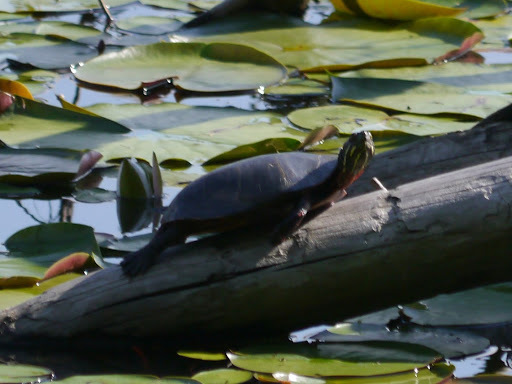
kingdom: Animalia
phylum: Chordata
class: Testudines
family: Emydidae
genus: Chrysemys
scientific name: Chrysemys picta
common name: Painted turtle
